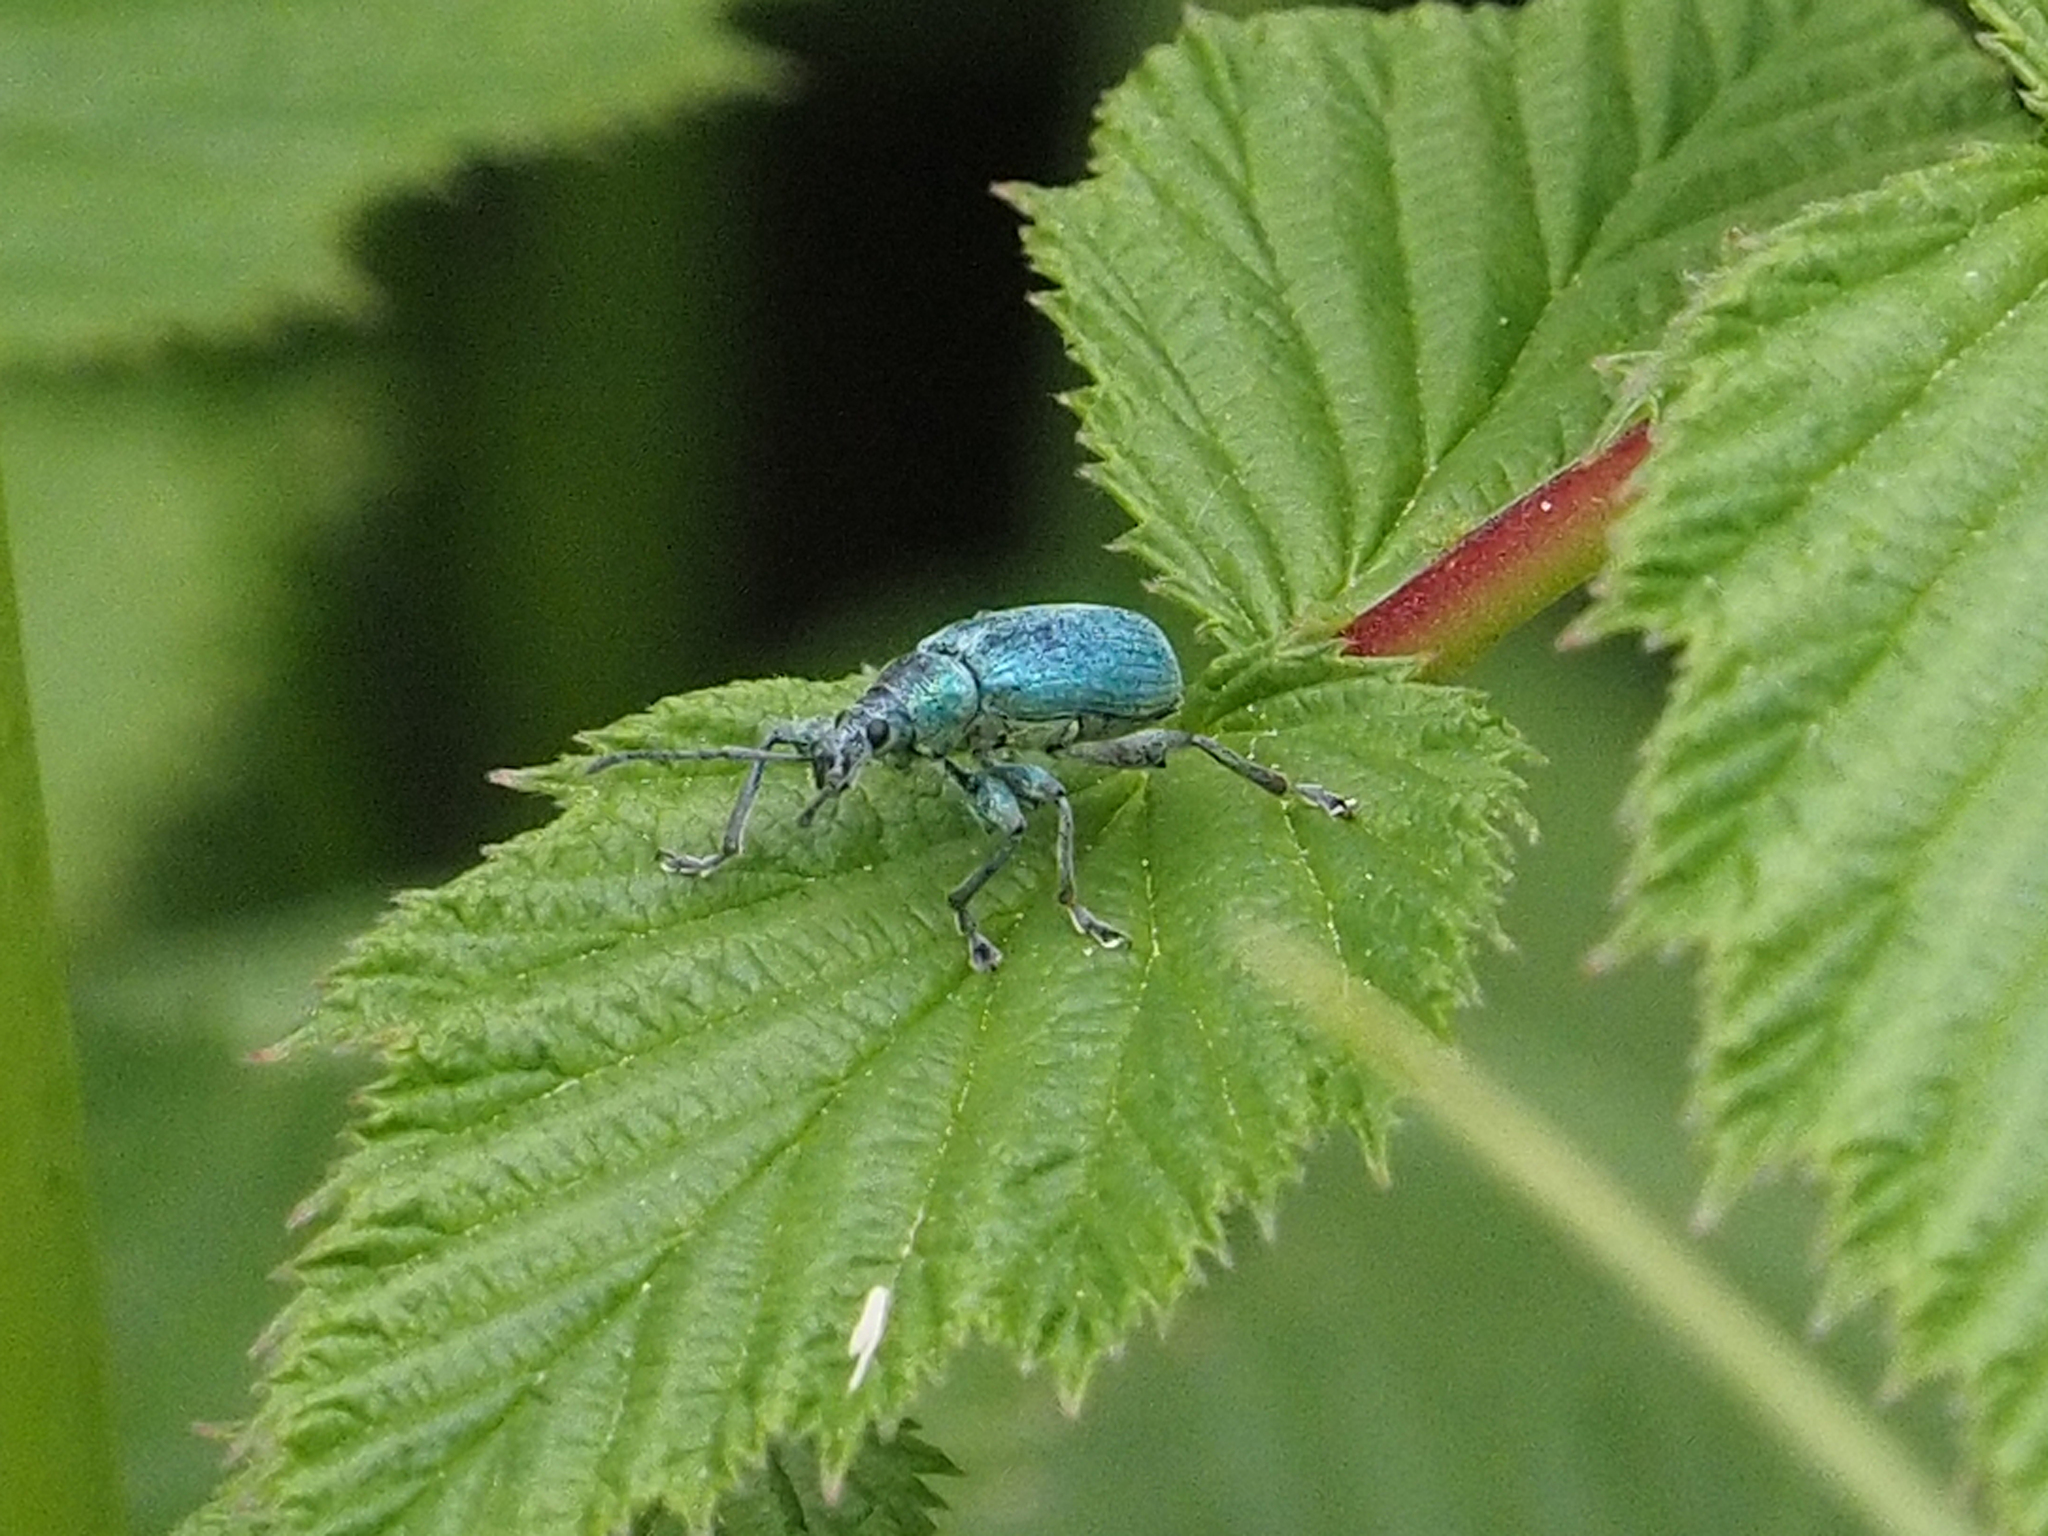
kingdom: Animalia
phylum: Arthropoda
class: Insecta
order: Coleoptera
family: Curculionidae
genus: Phyllobius
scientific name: Phyllobius pomaceus
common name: Green nettle weevil
